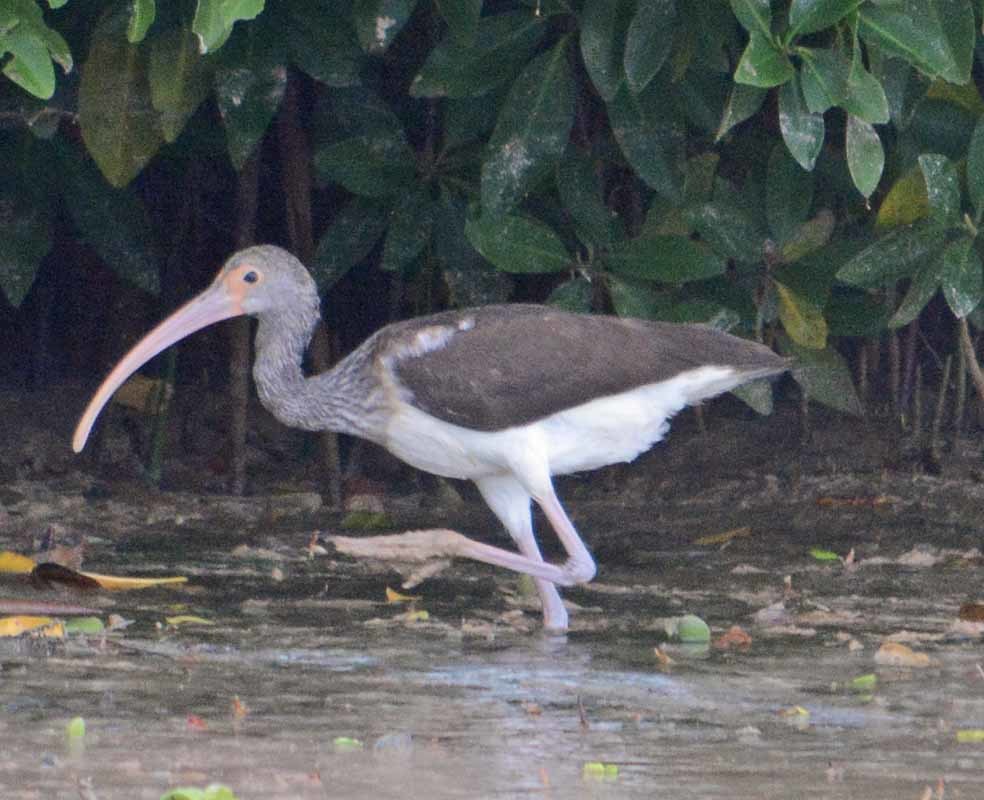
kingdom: Animalia
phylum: Chordata
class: Aves
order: Pelecaniformes
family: Threskiornithidae
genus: Eudocimus
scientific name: Eudocimus albus
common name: White ibis
